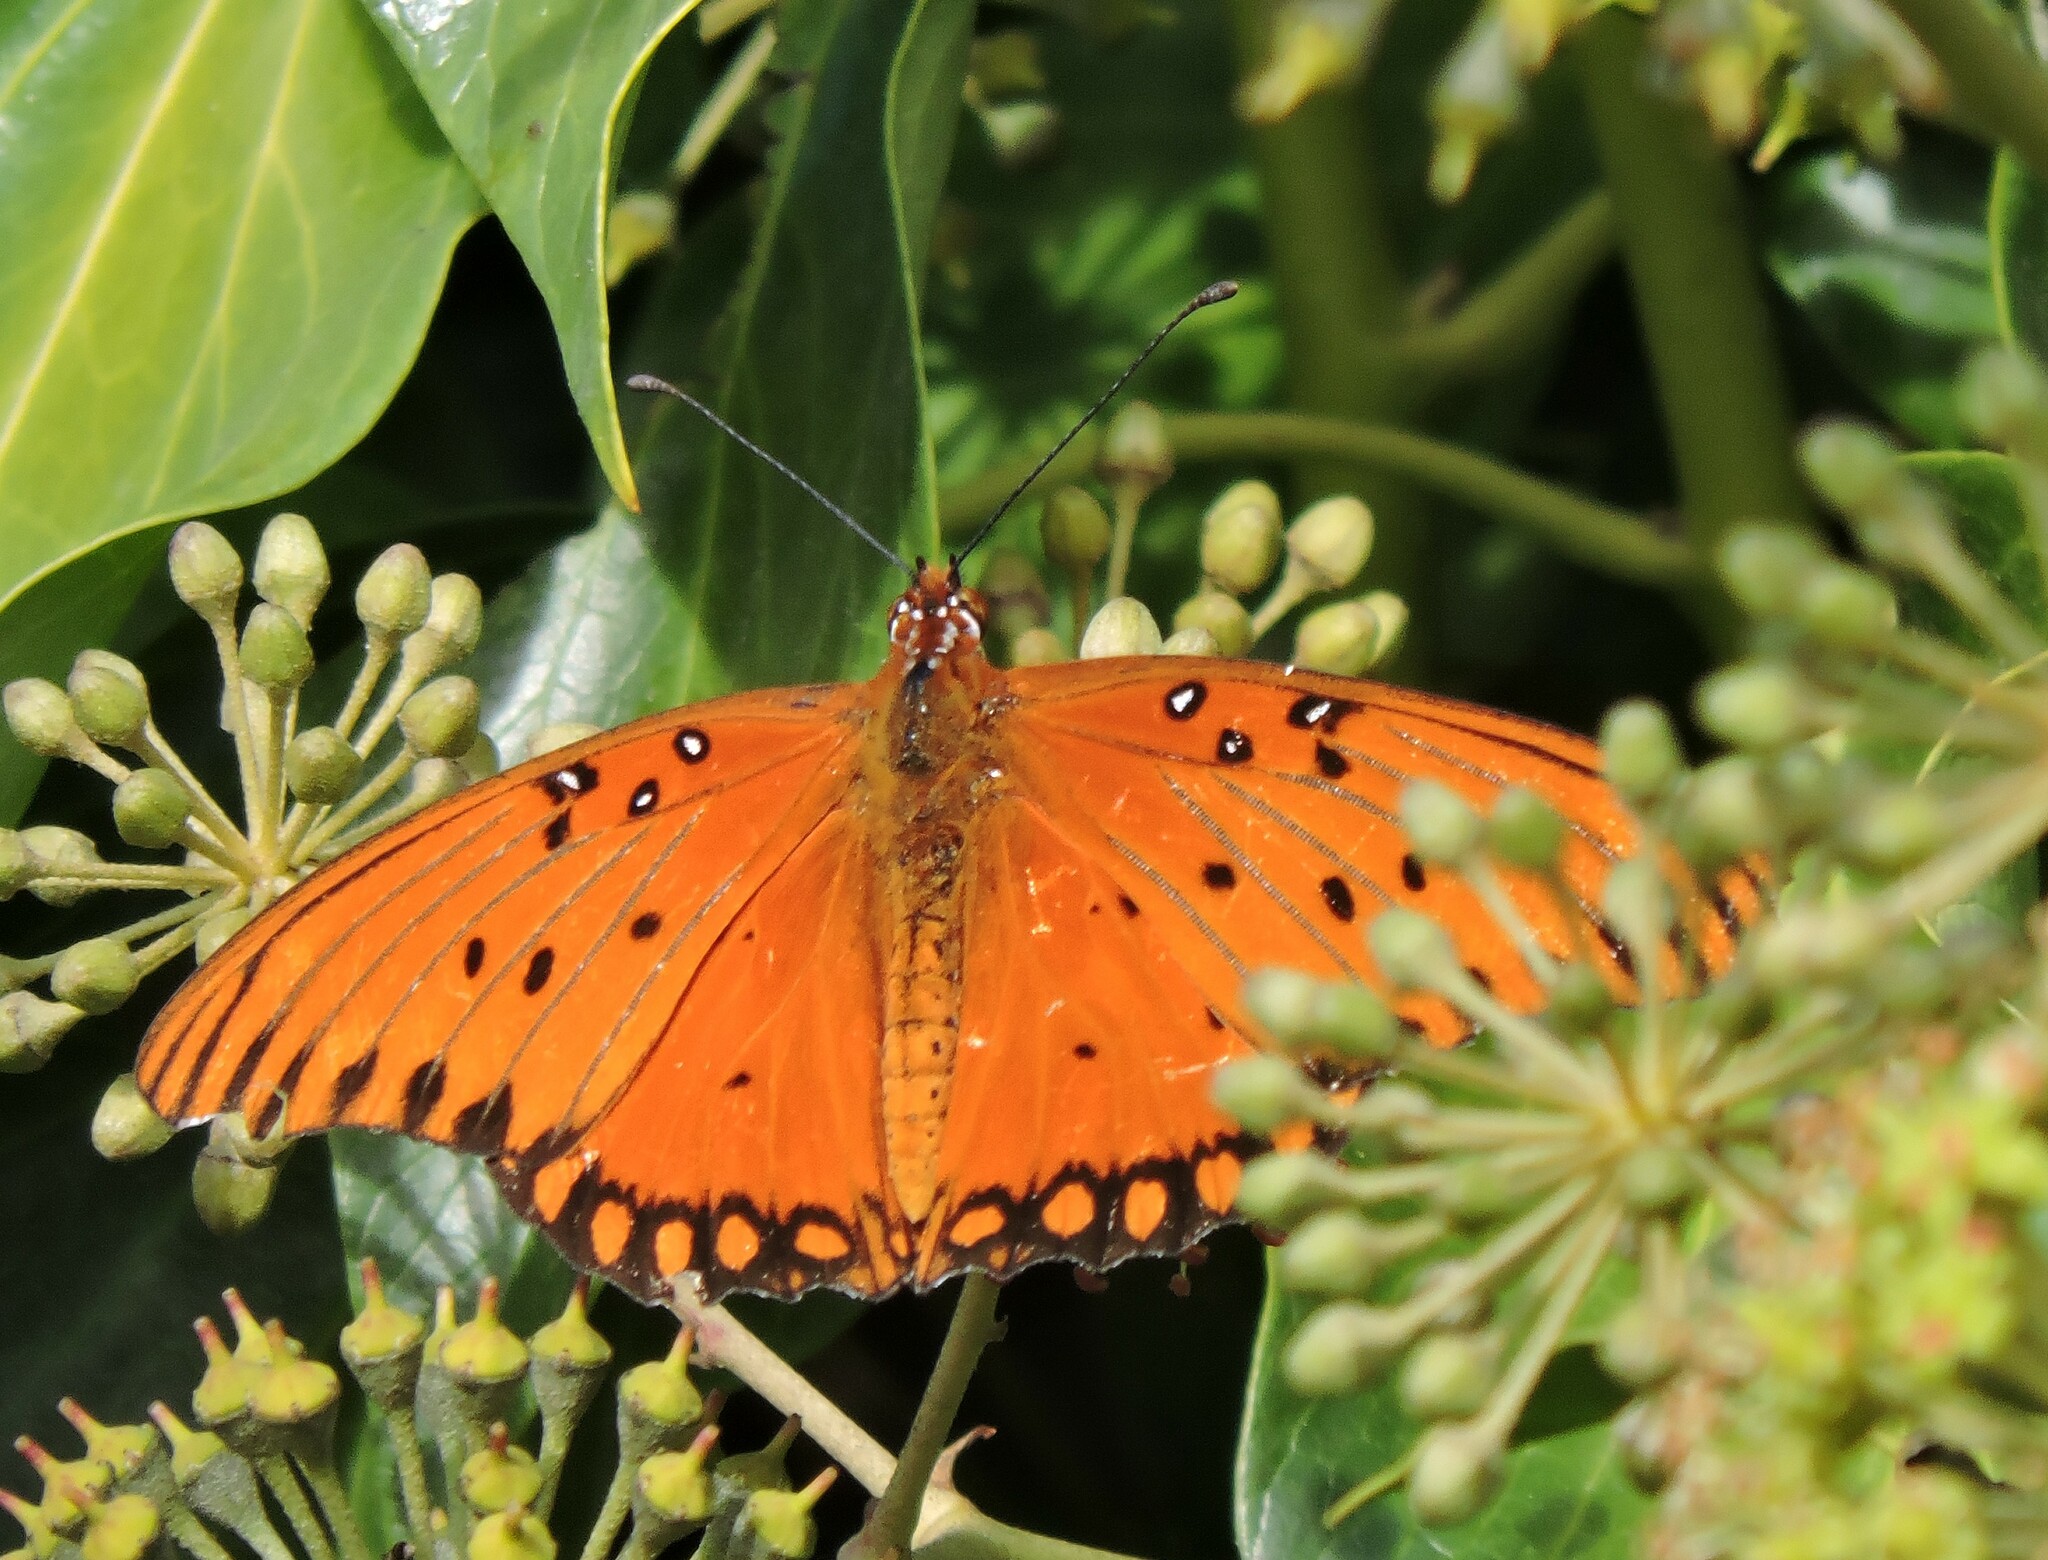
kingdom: Animalia
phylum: Arthropoda
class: Insecta
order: Lepidoptera
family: Nymphalidae
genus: Dione
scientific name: Dione vanillae
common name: Gulf fritillary
